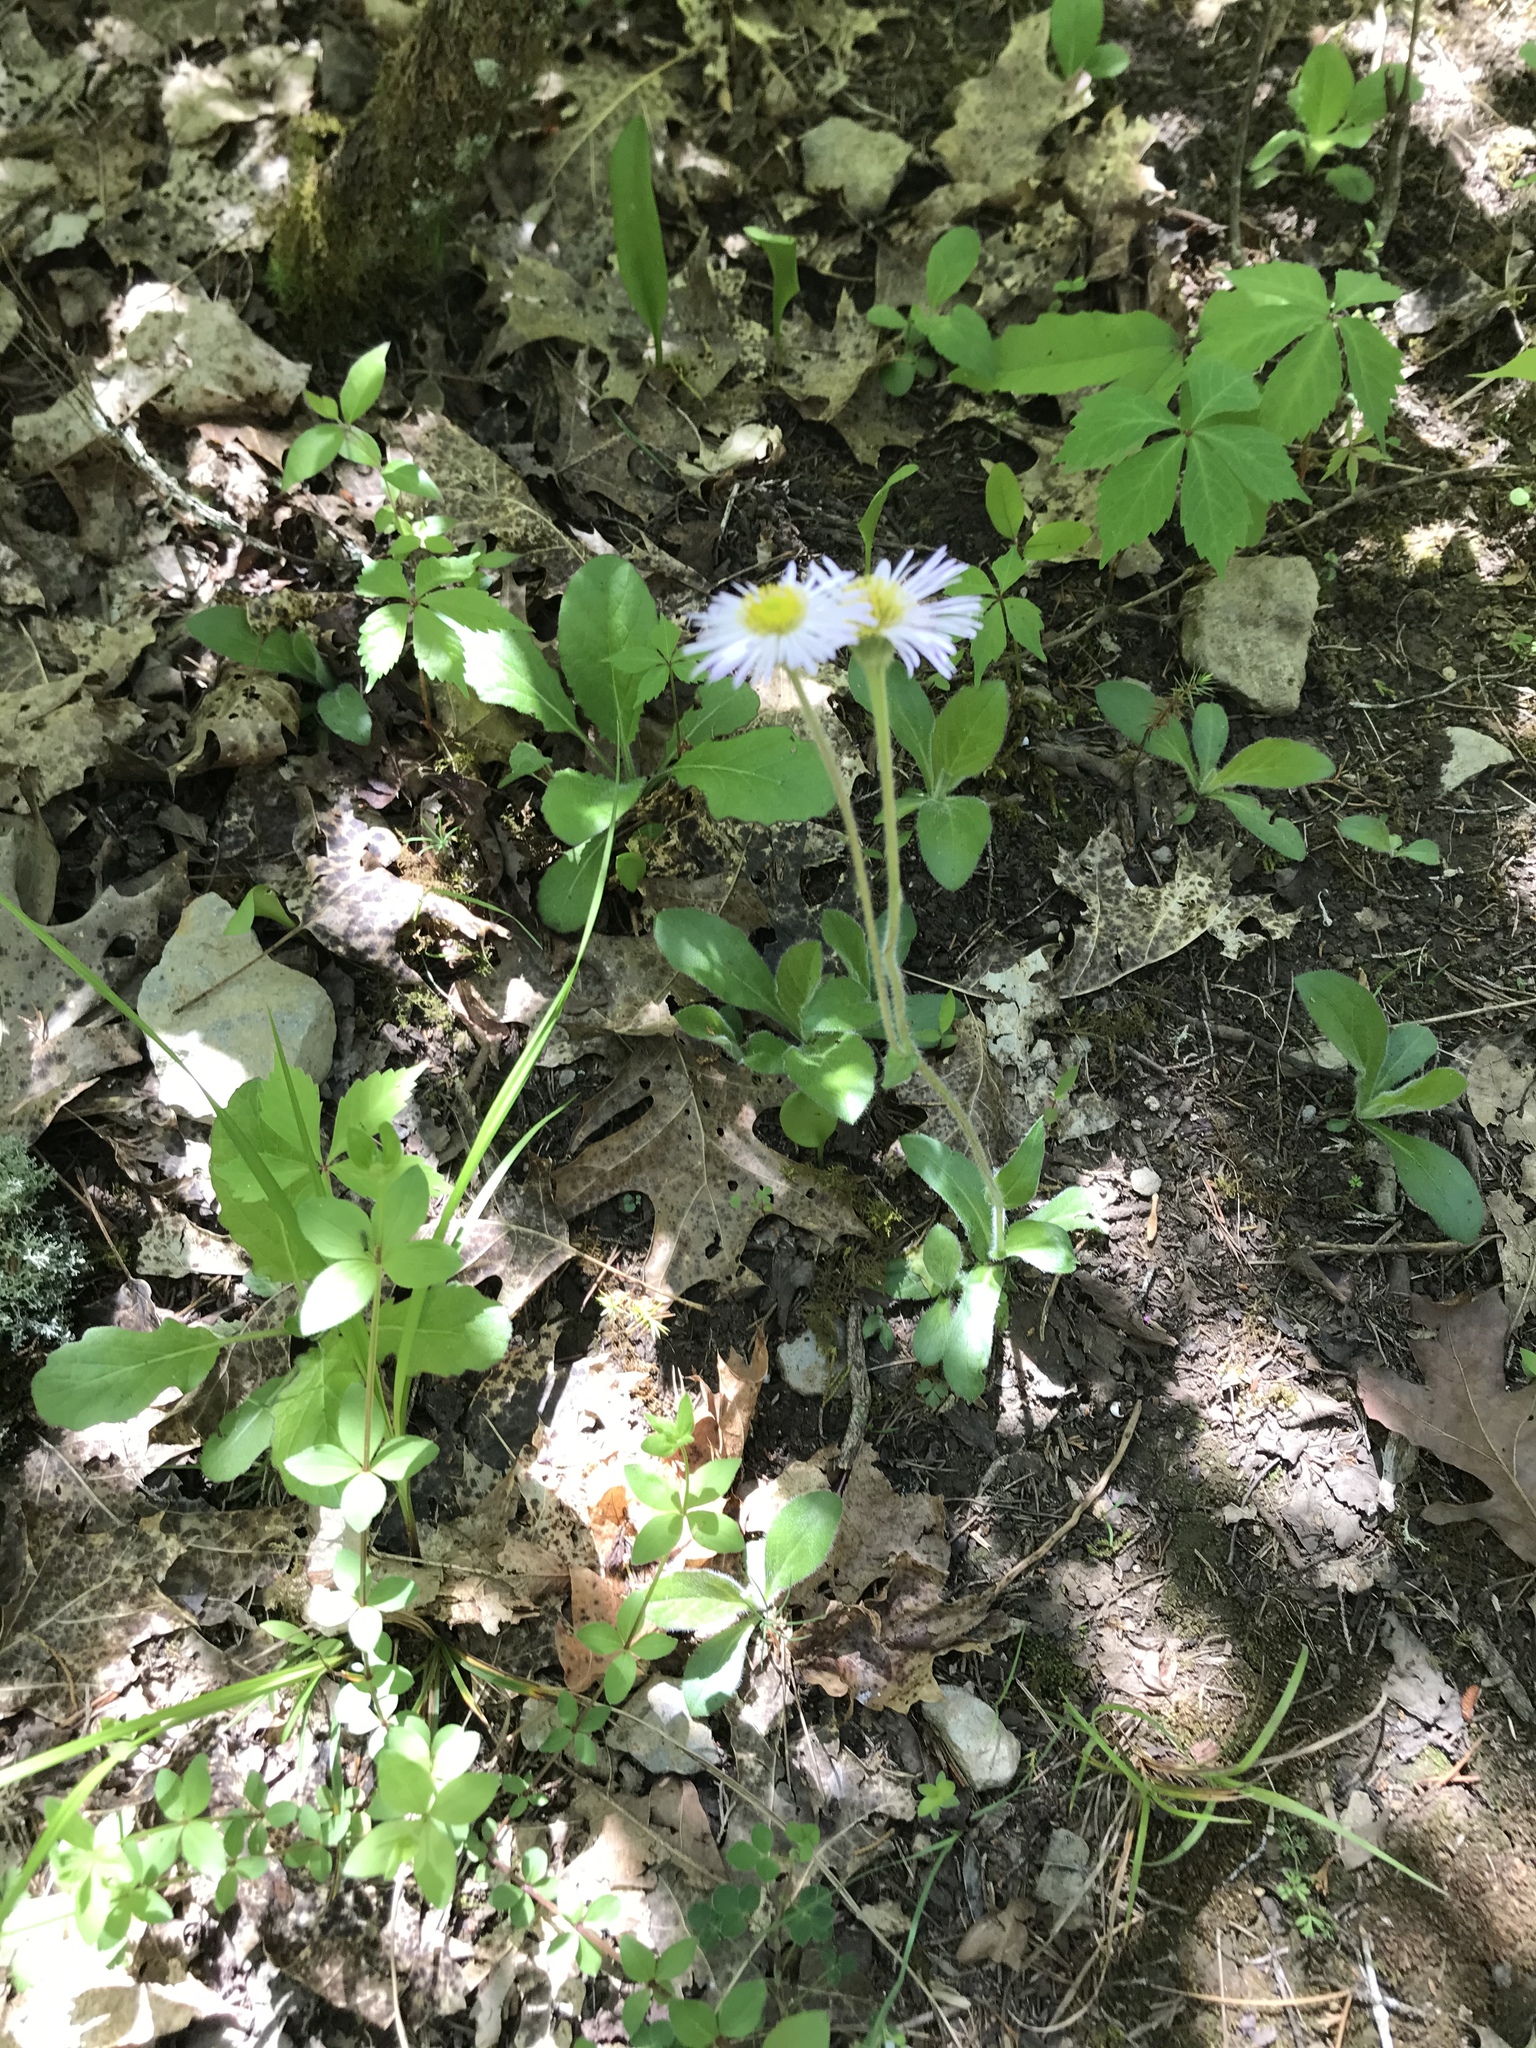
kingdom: Plantae
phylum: Tracheophyta
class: Magnoliopsida
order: Asterales
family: Asteraceae
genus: Erigeron
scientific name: Erigeron pulchellus
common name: Hairy fleabane
